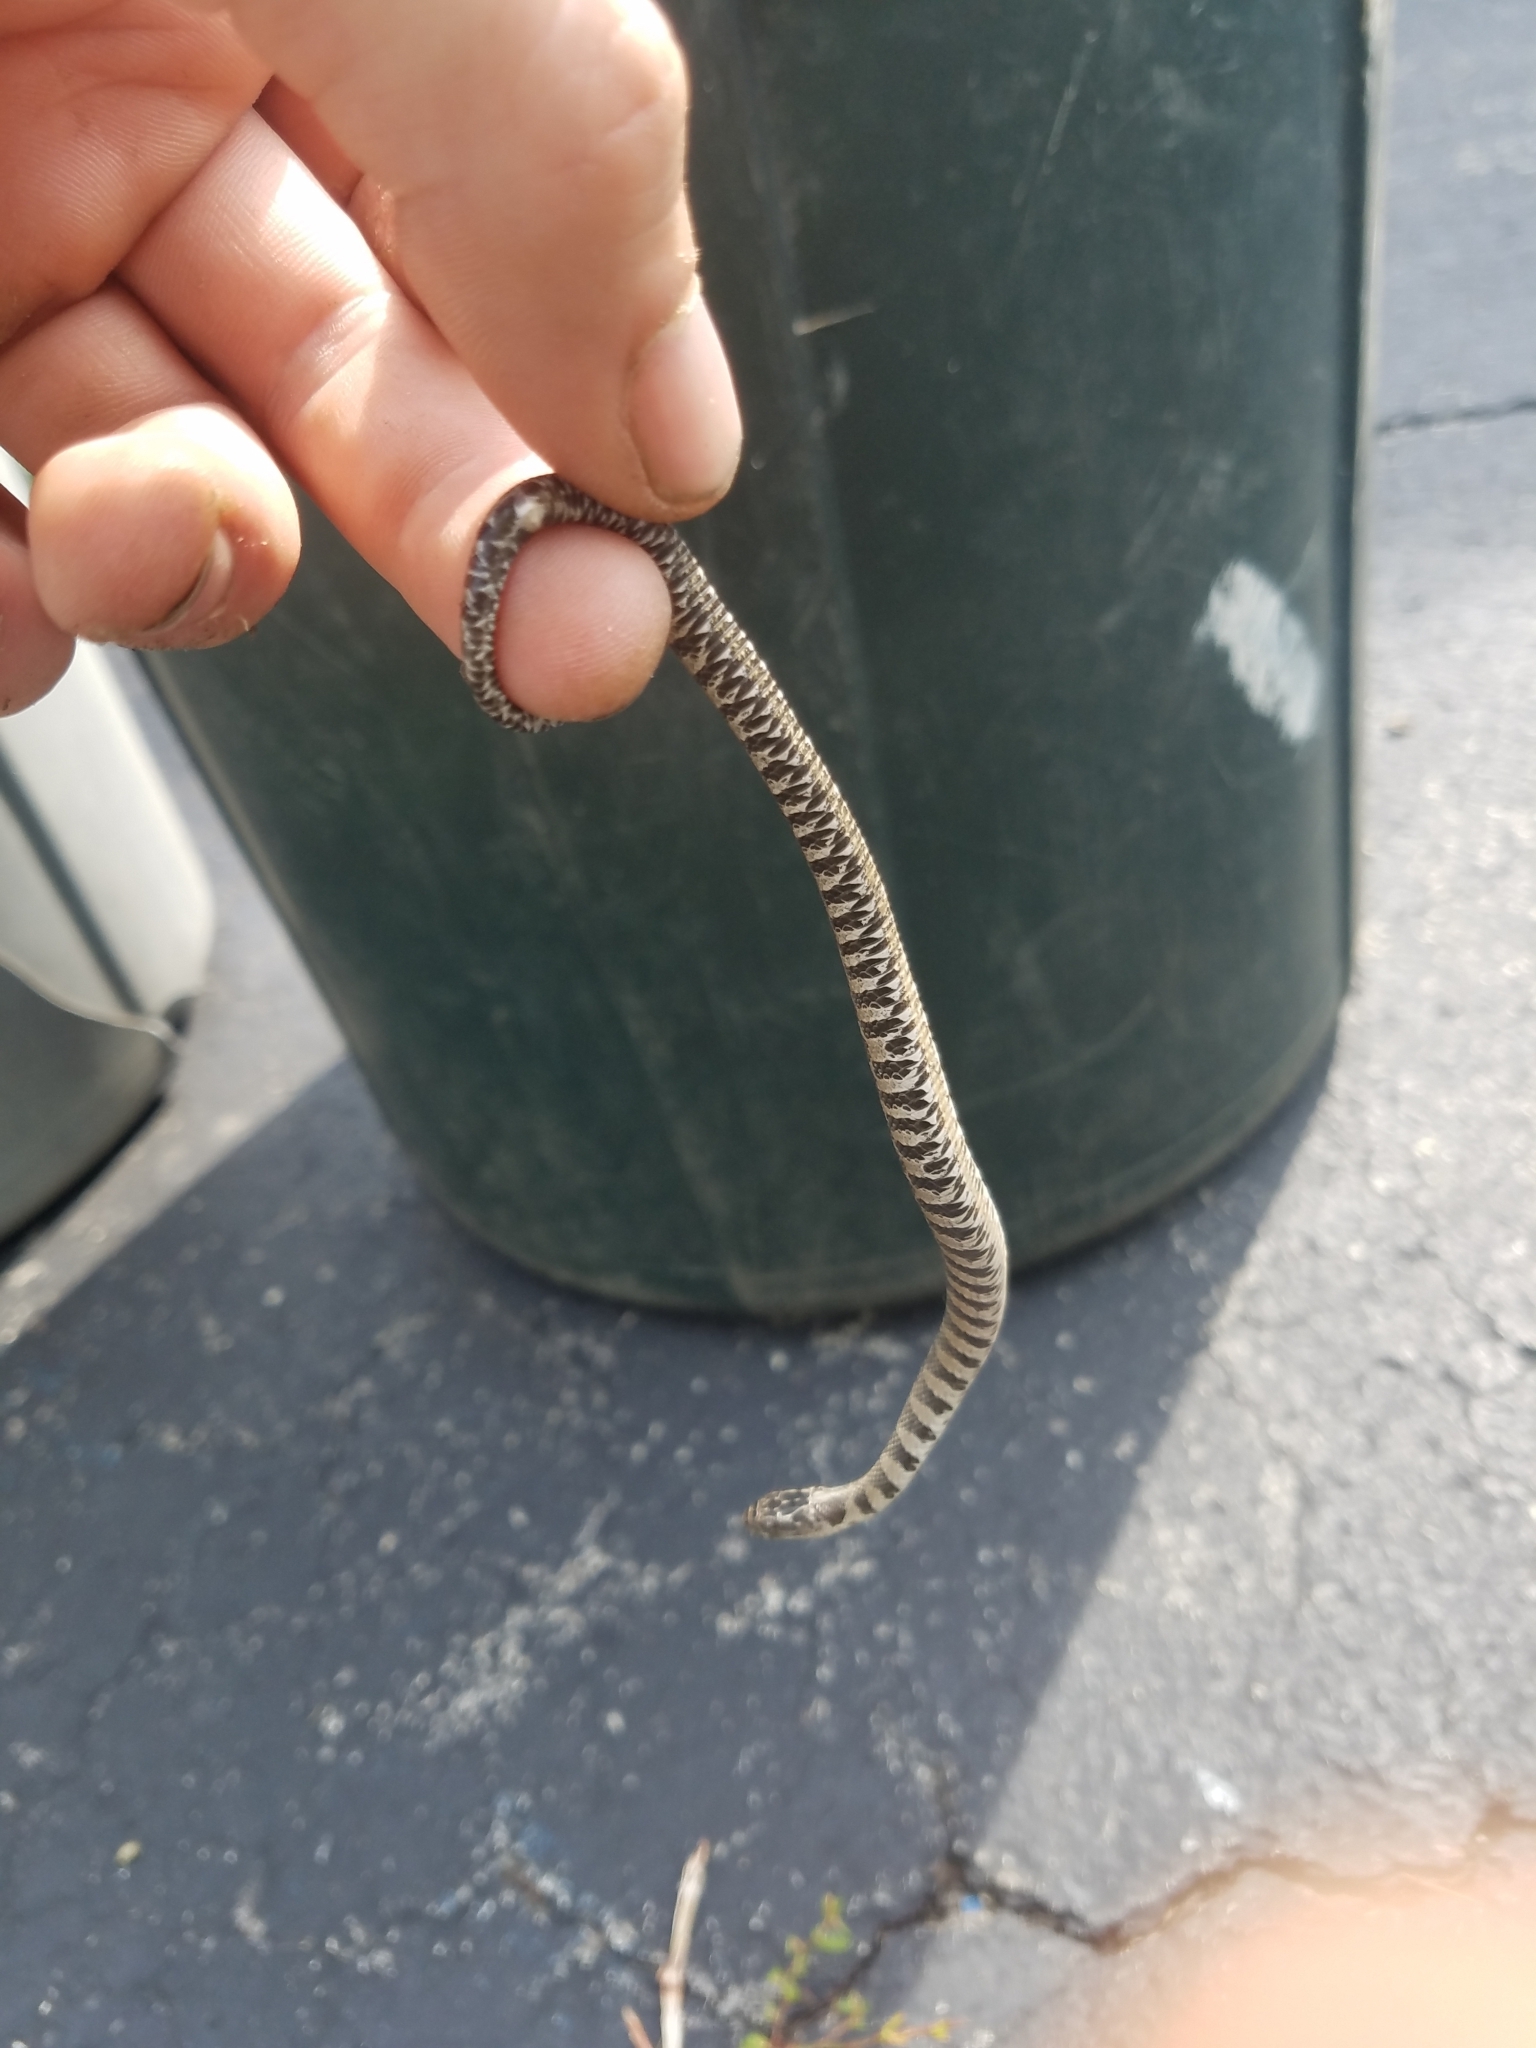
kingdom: Animalia
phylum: Chordata
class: Squamata
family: Colubridae
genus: Nerodia
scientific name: Nerodia sipedon
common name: Northern water snake
